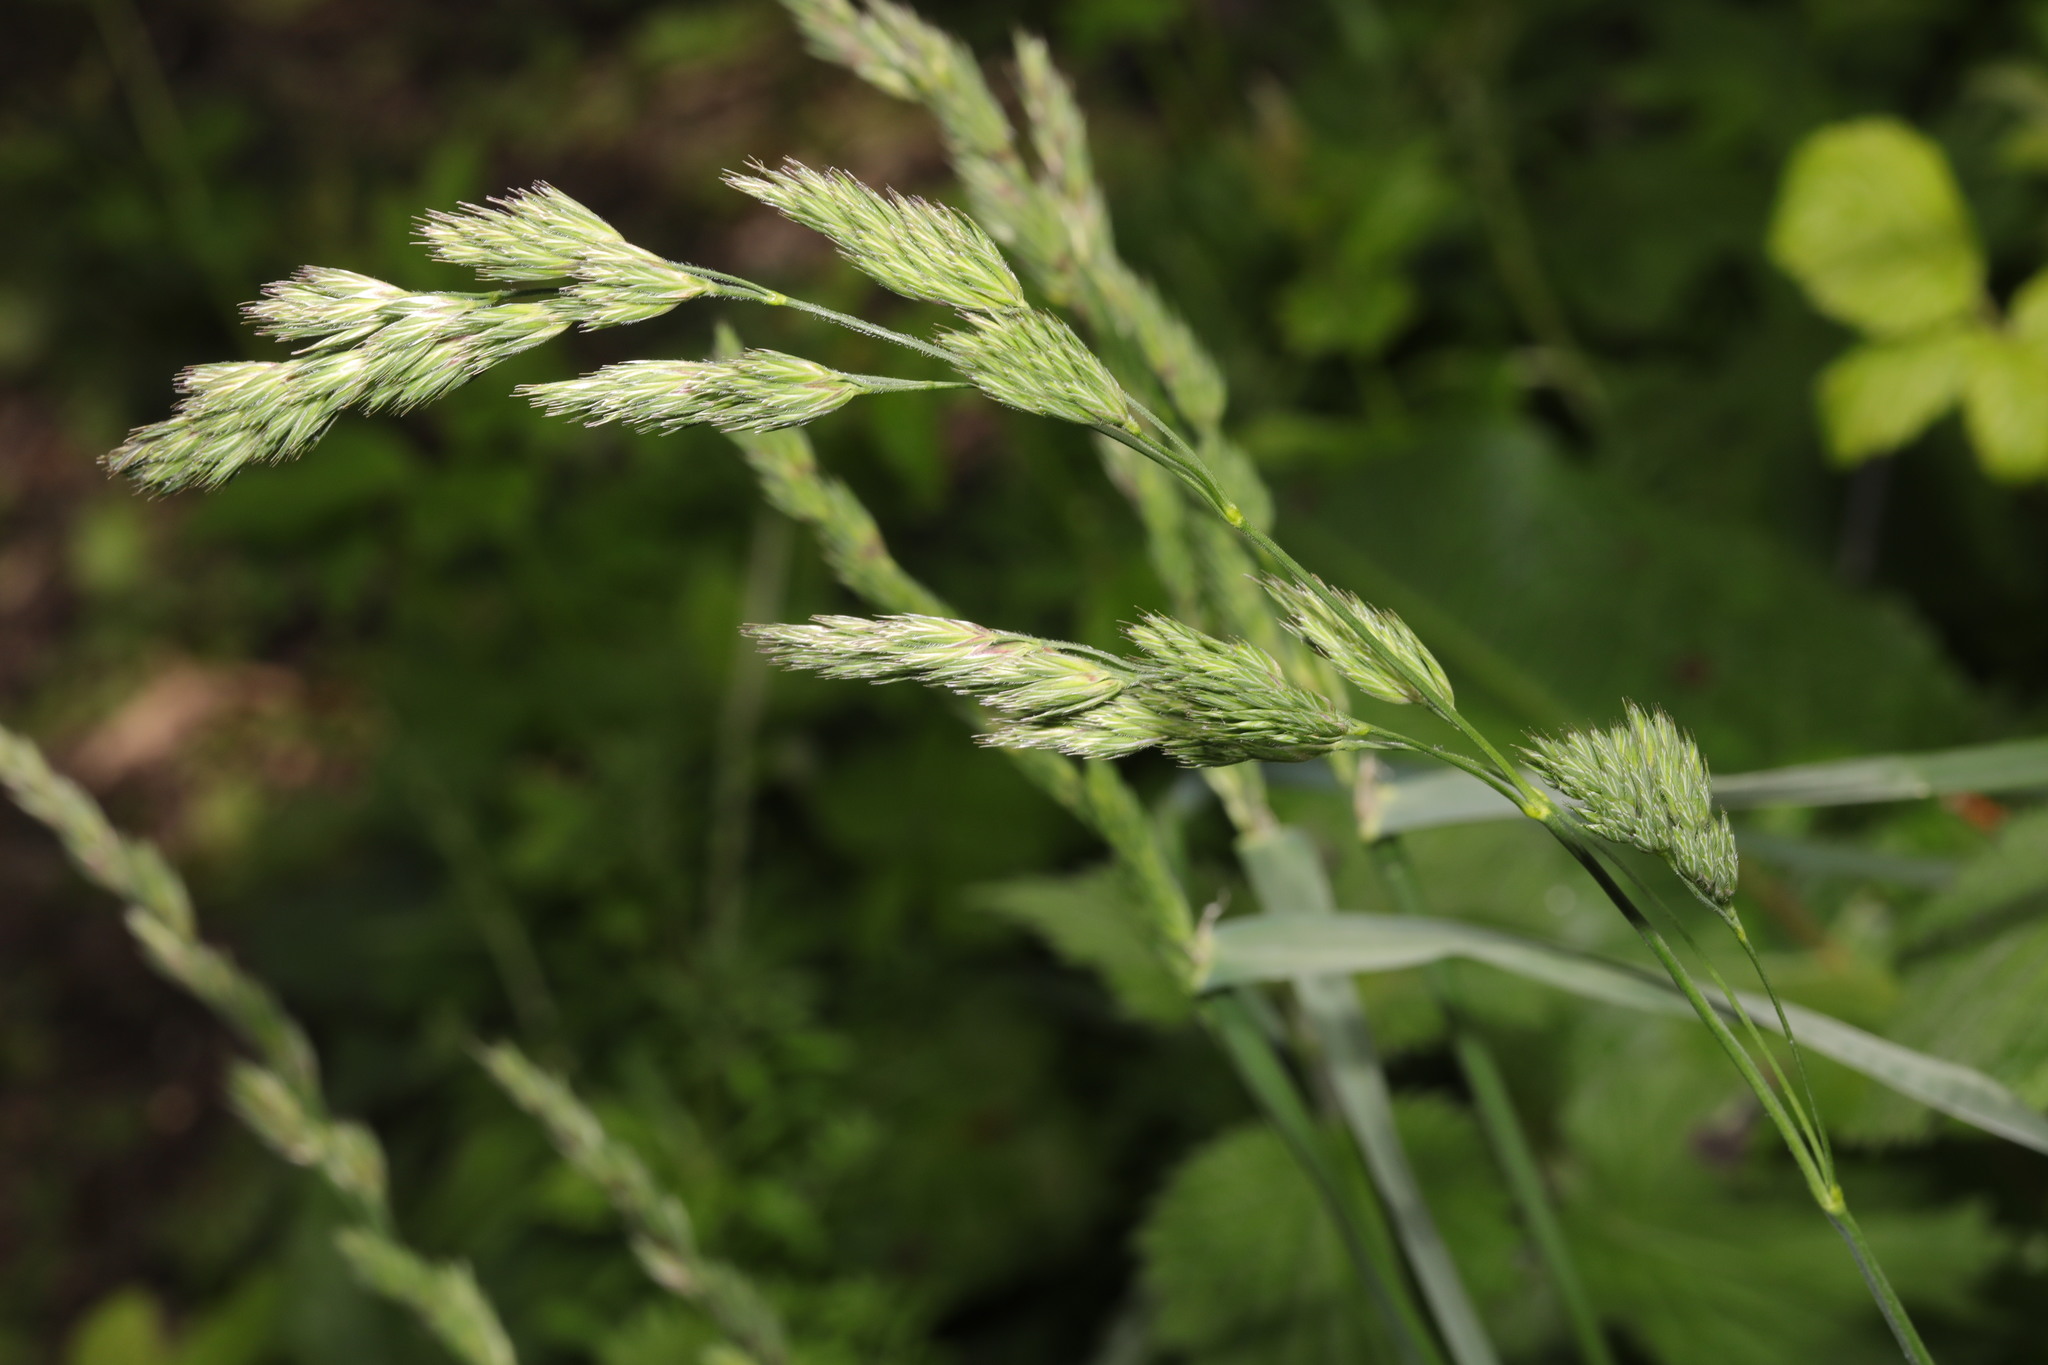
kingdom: Plantae
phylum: Tracheophyta
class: Liliopsida
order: Poales
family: Poaceae
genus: Dactylis
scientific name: Dactylis glomerata
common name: Orchardgrass
